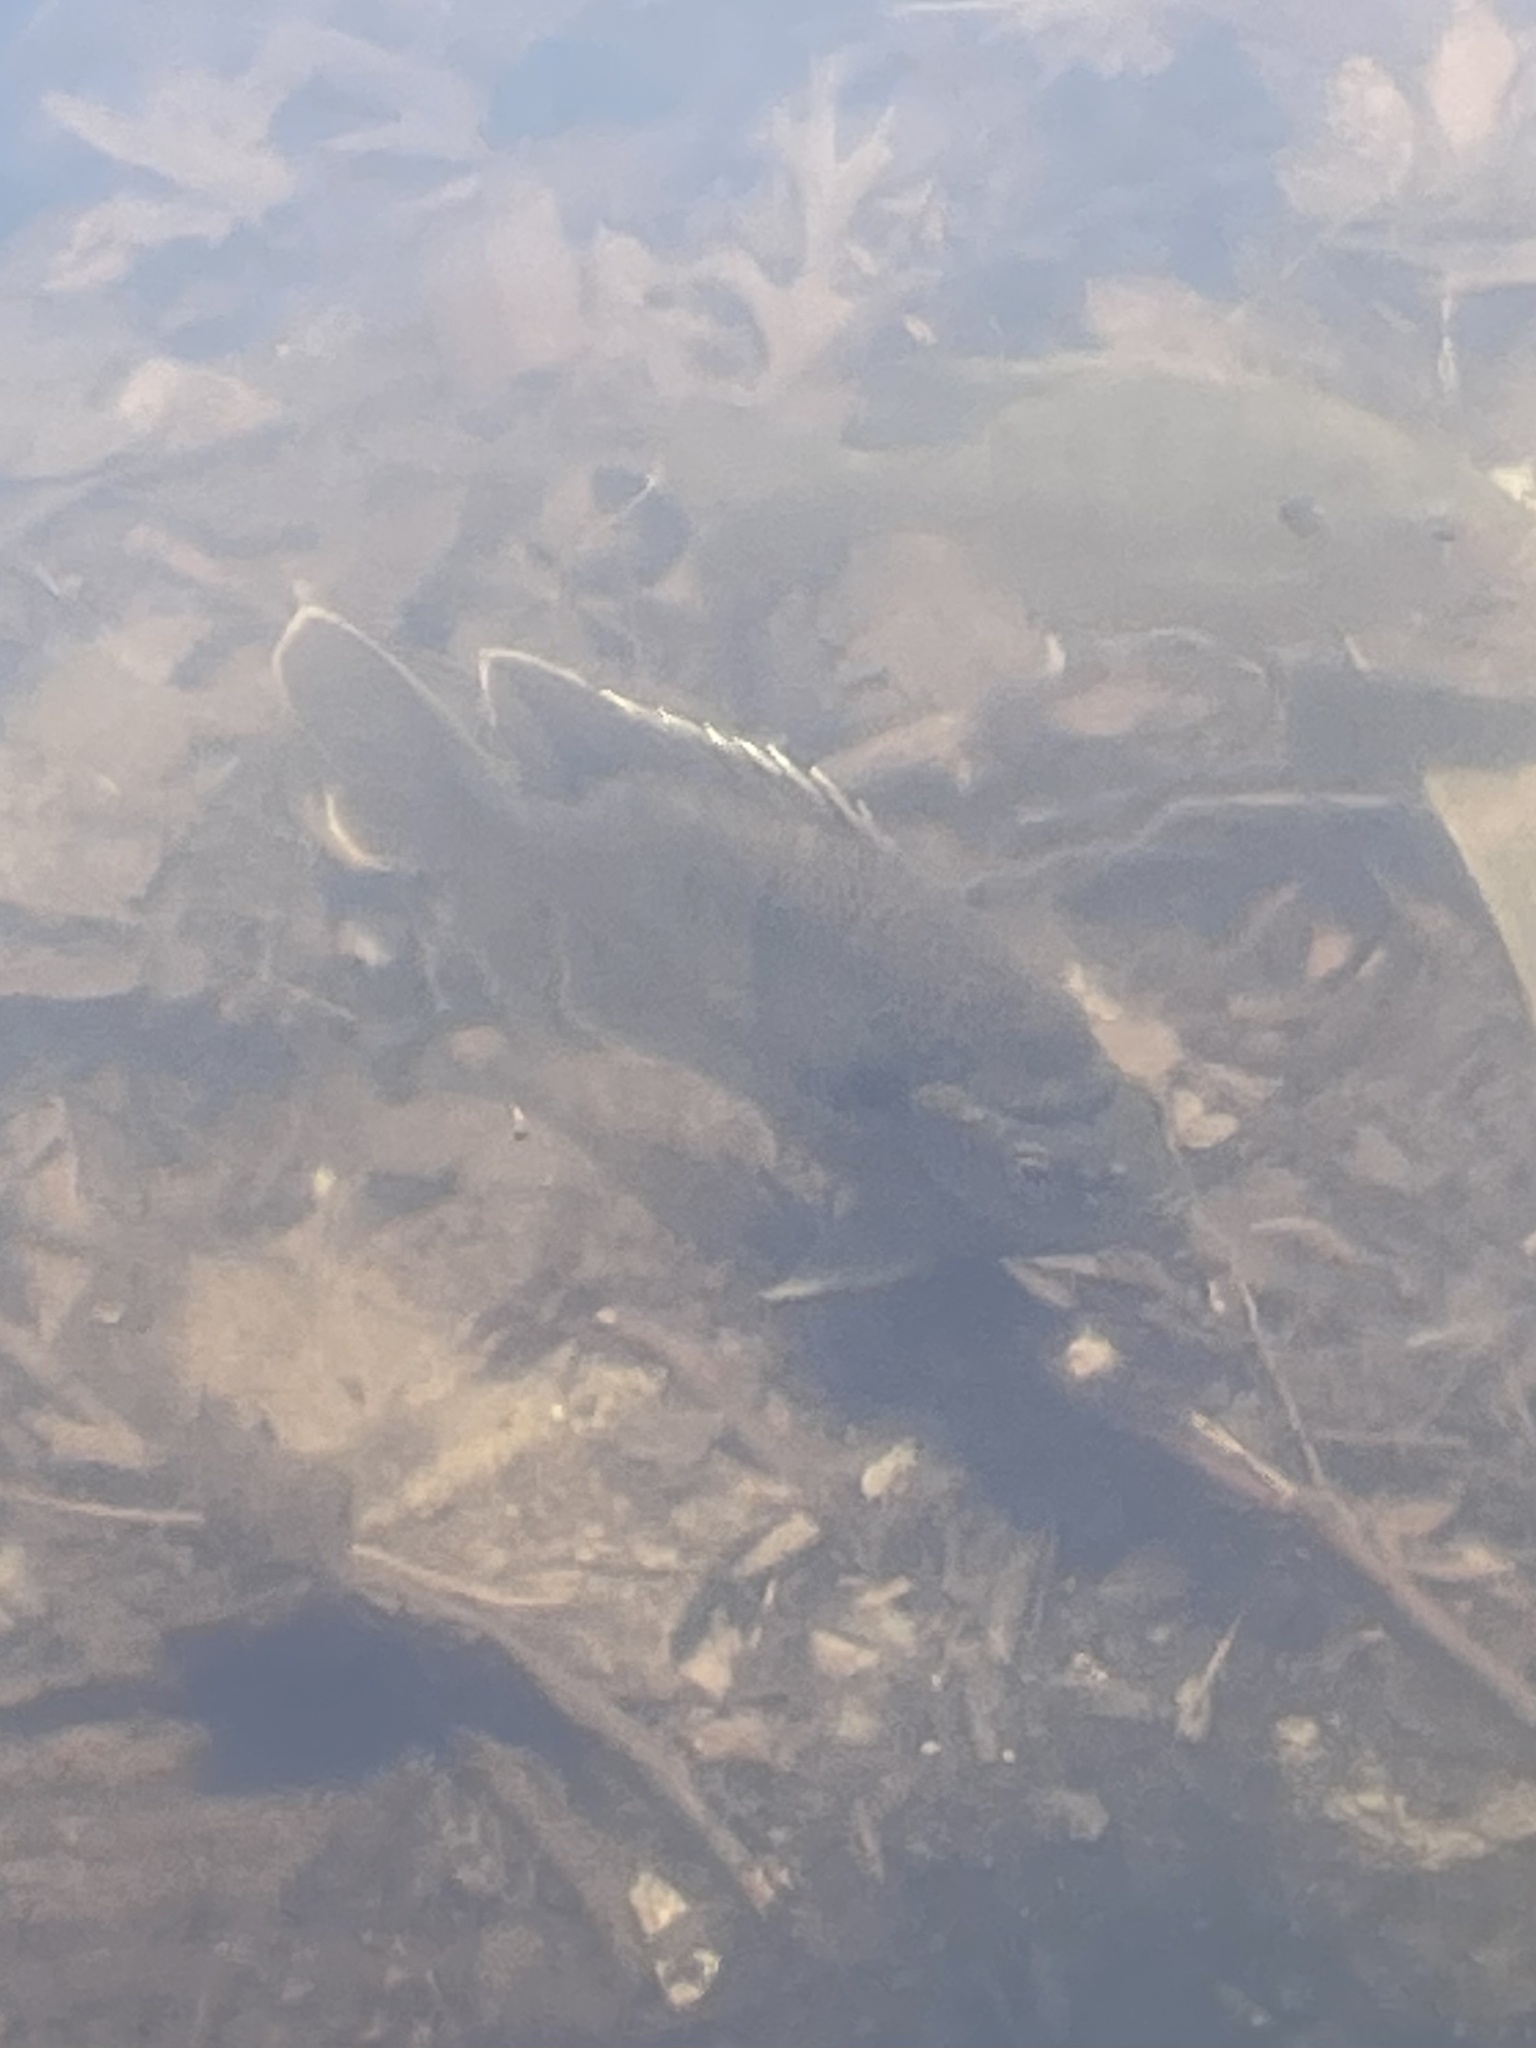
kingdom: Animalia
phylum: Chordata
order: Perciformes
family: Centrarchidae
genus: Lepomis
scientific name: Lepomis macrochirus
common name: Bluegill
